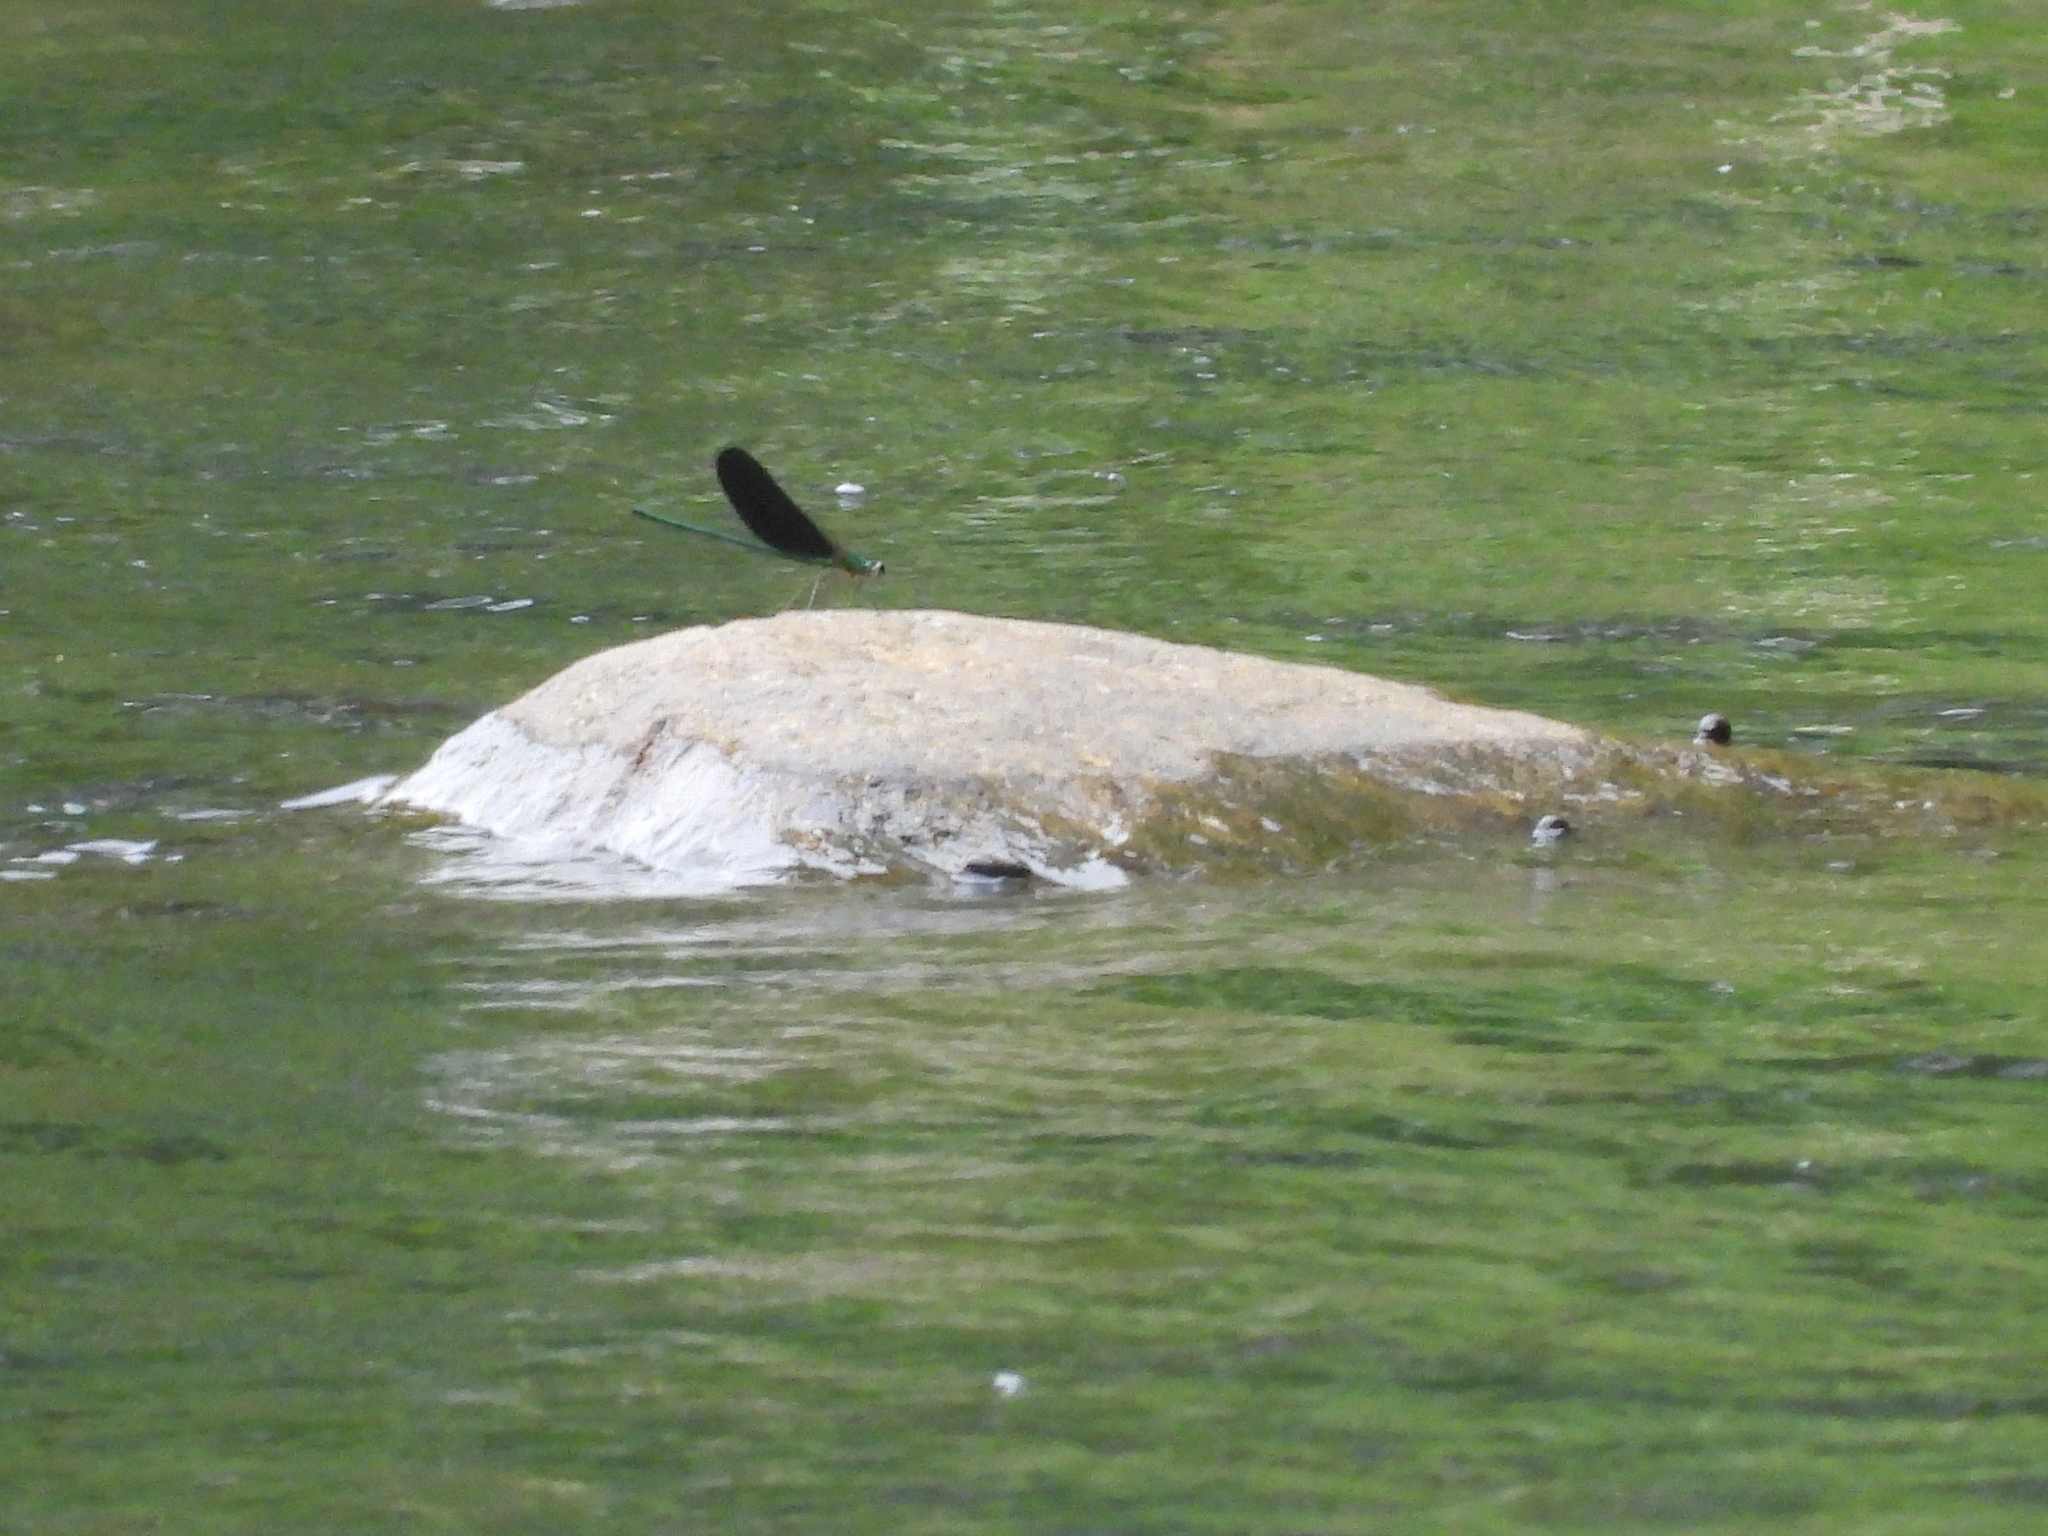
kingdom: Animalia
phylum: Arthropoda
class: Insecta
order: Odonata
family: Calopterygidae
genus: Neurobasis
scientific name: Neurobasis chinensis
